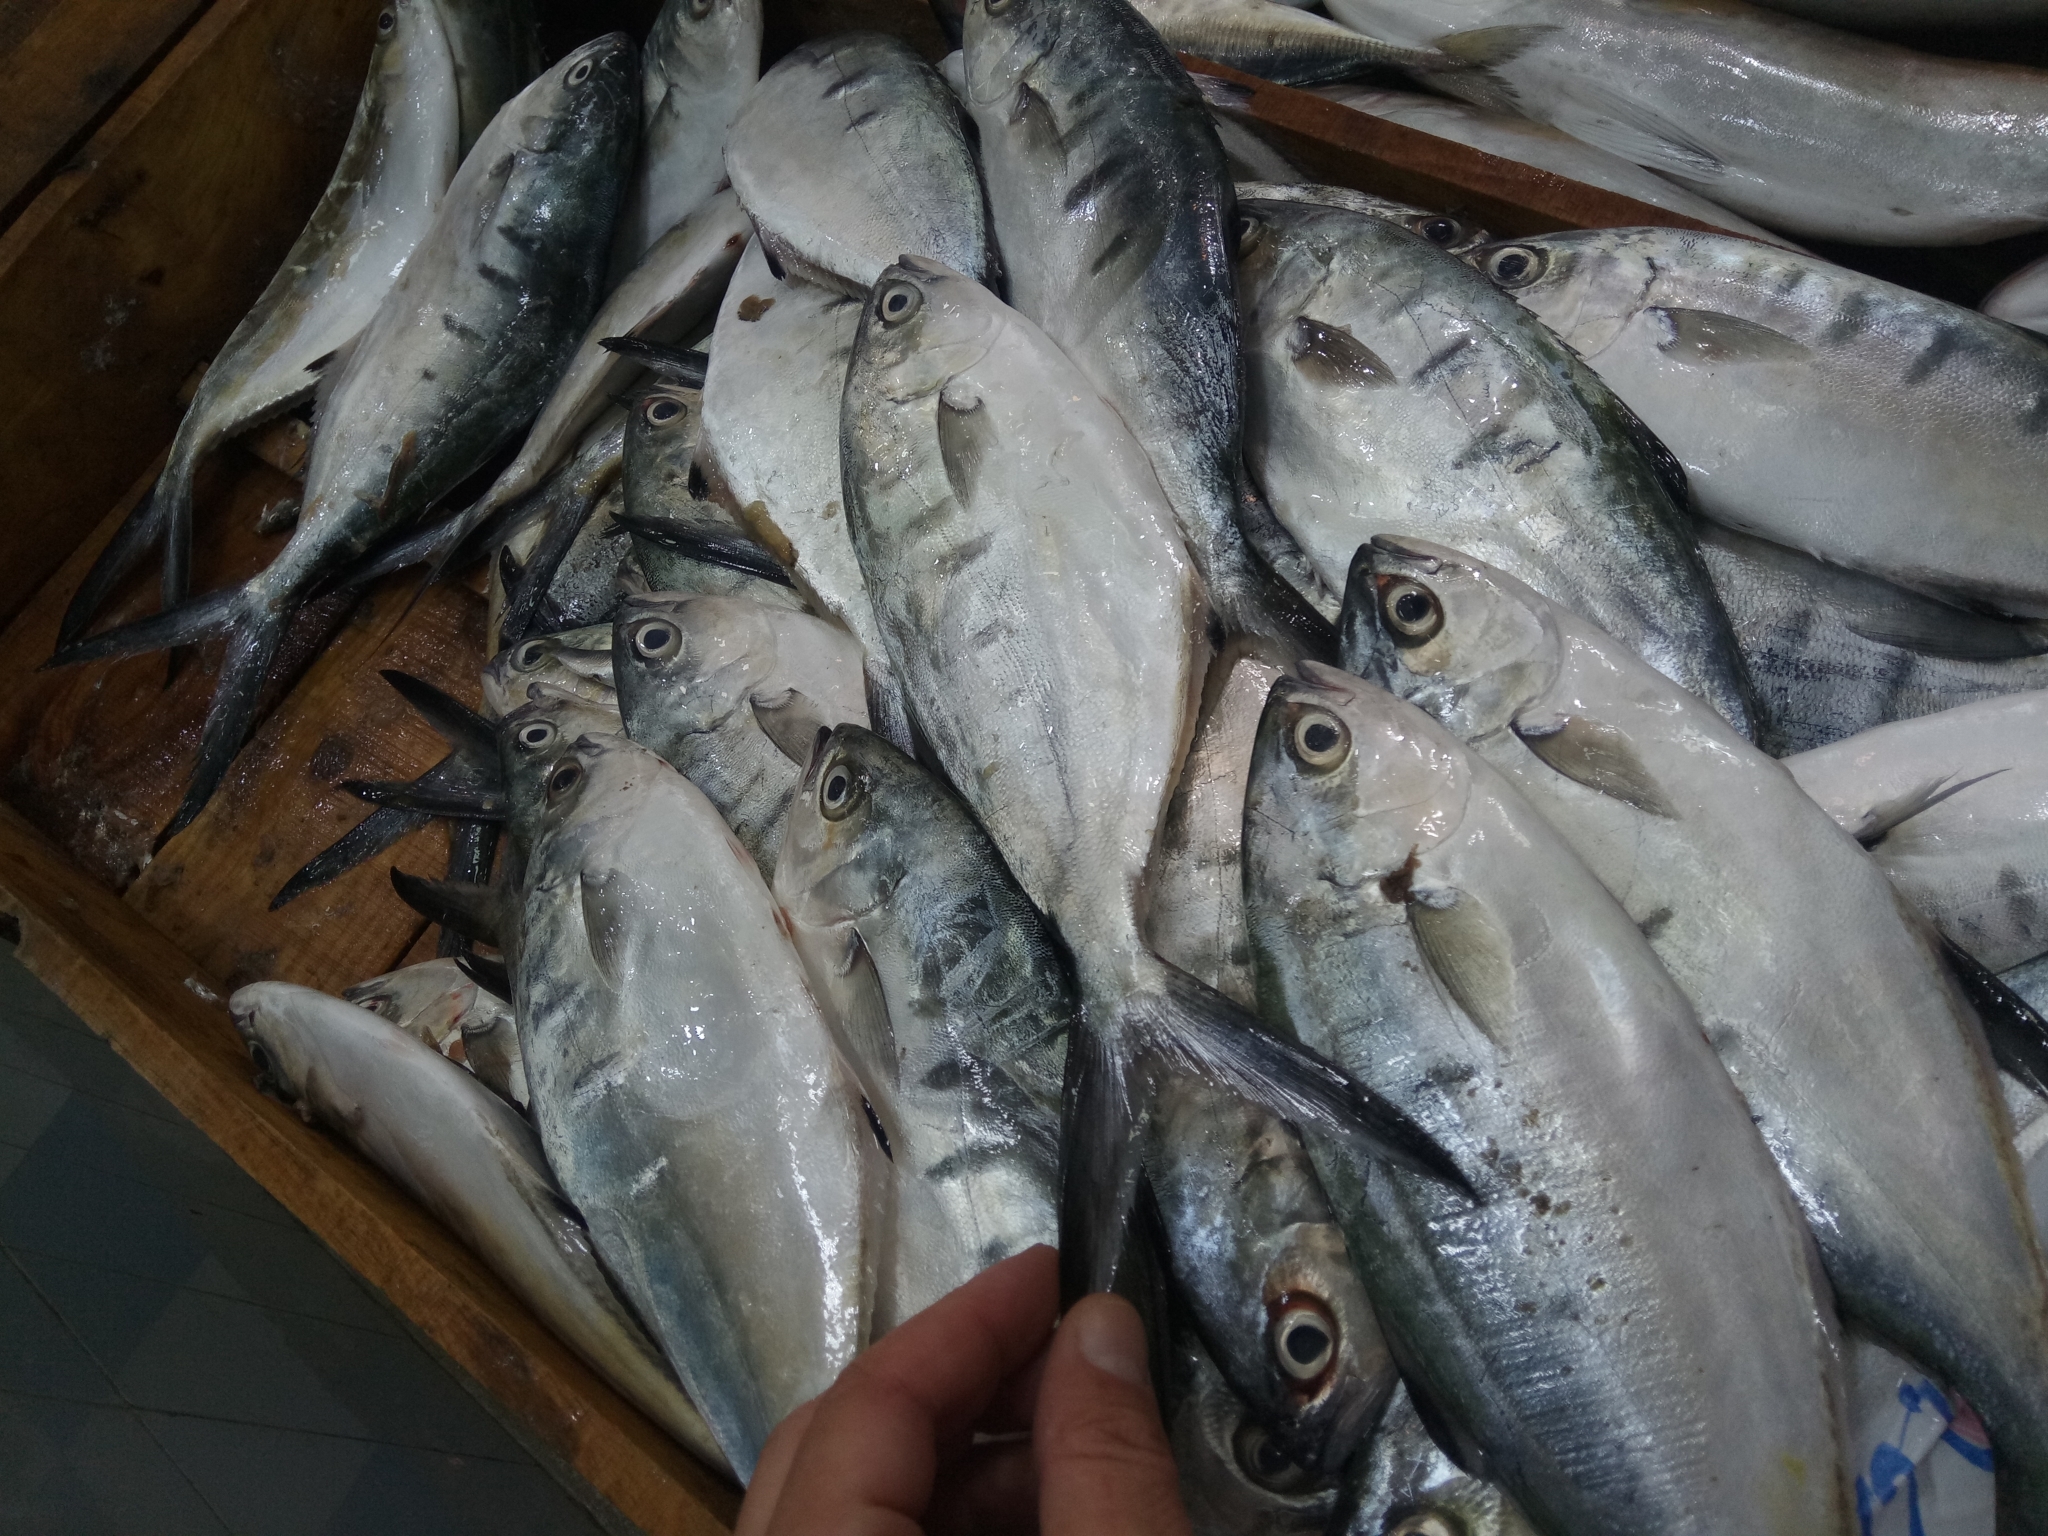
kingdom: Animalia
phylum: Chordata
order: Perciformes
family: Carangidae
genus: Trachinotus
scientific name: Trachinotus ovatus
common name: Pompano
